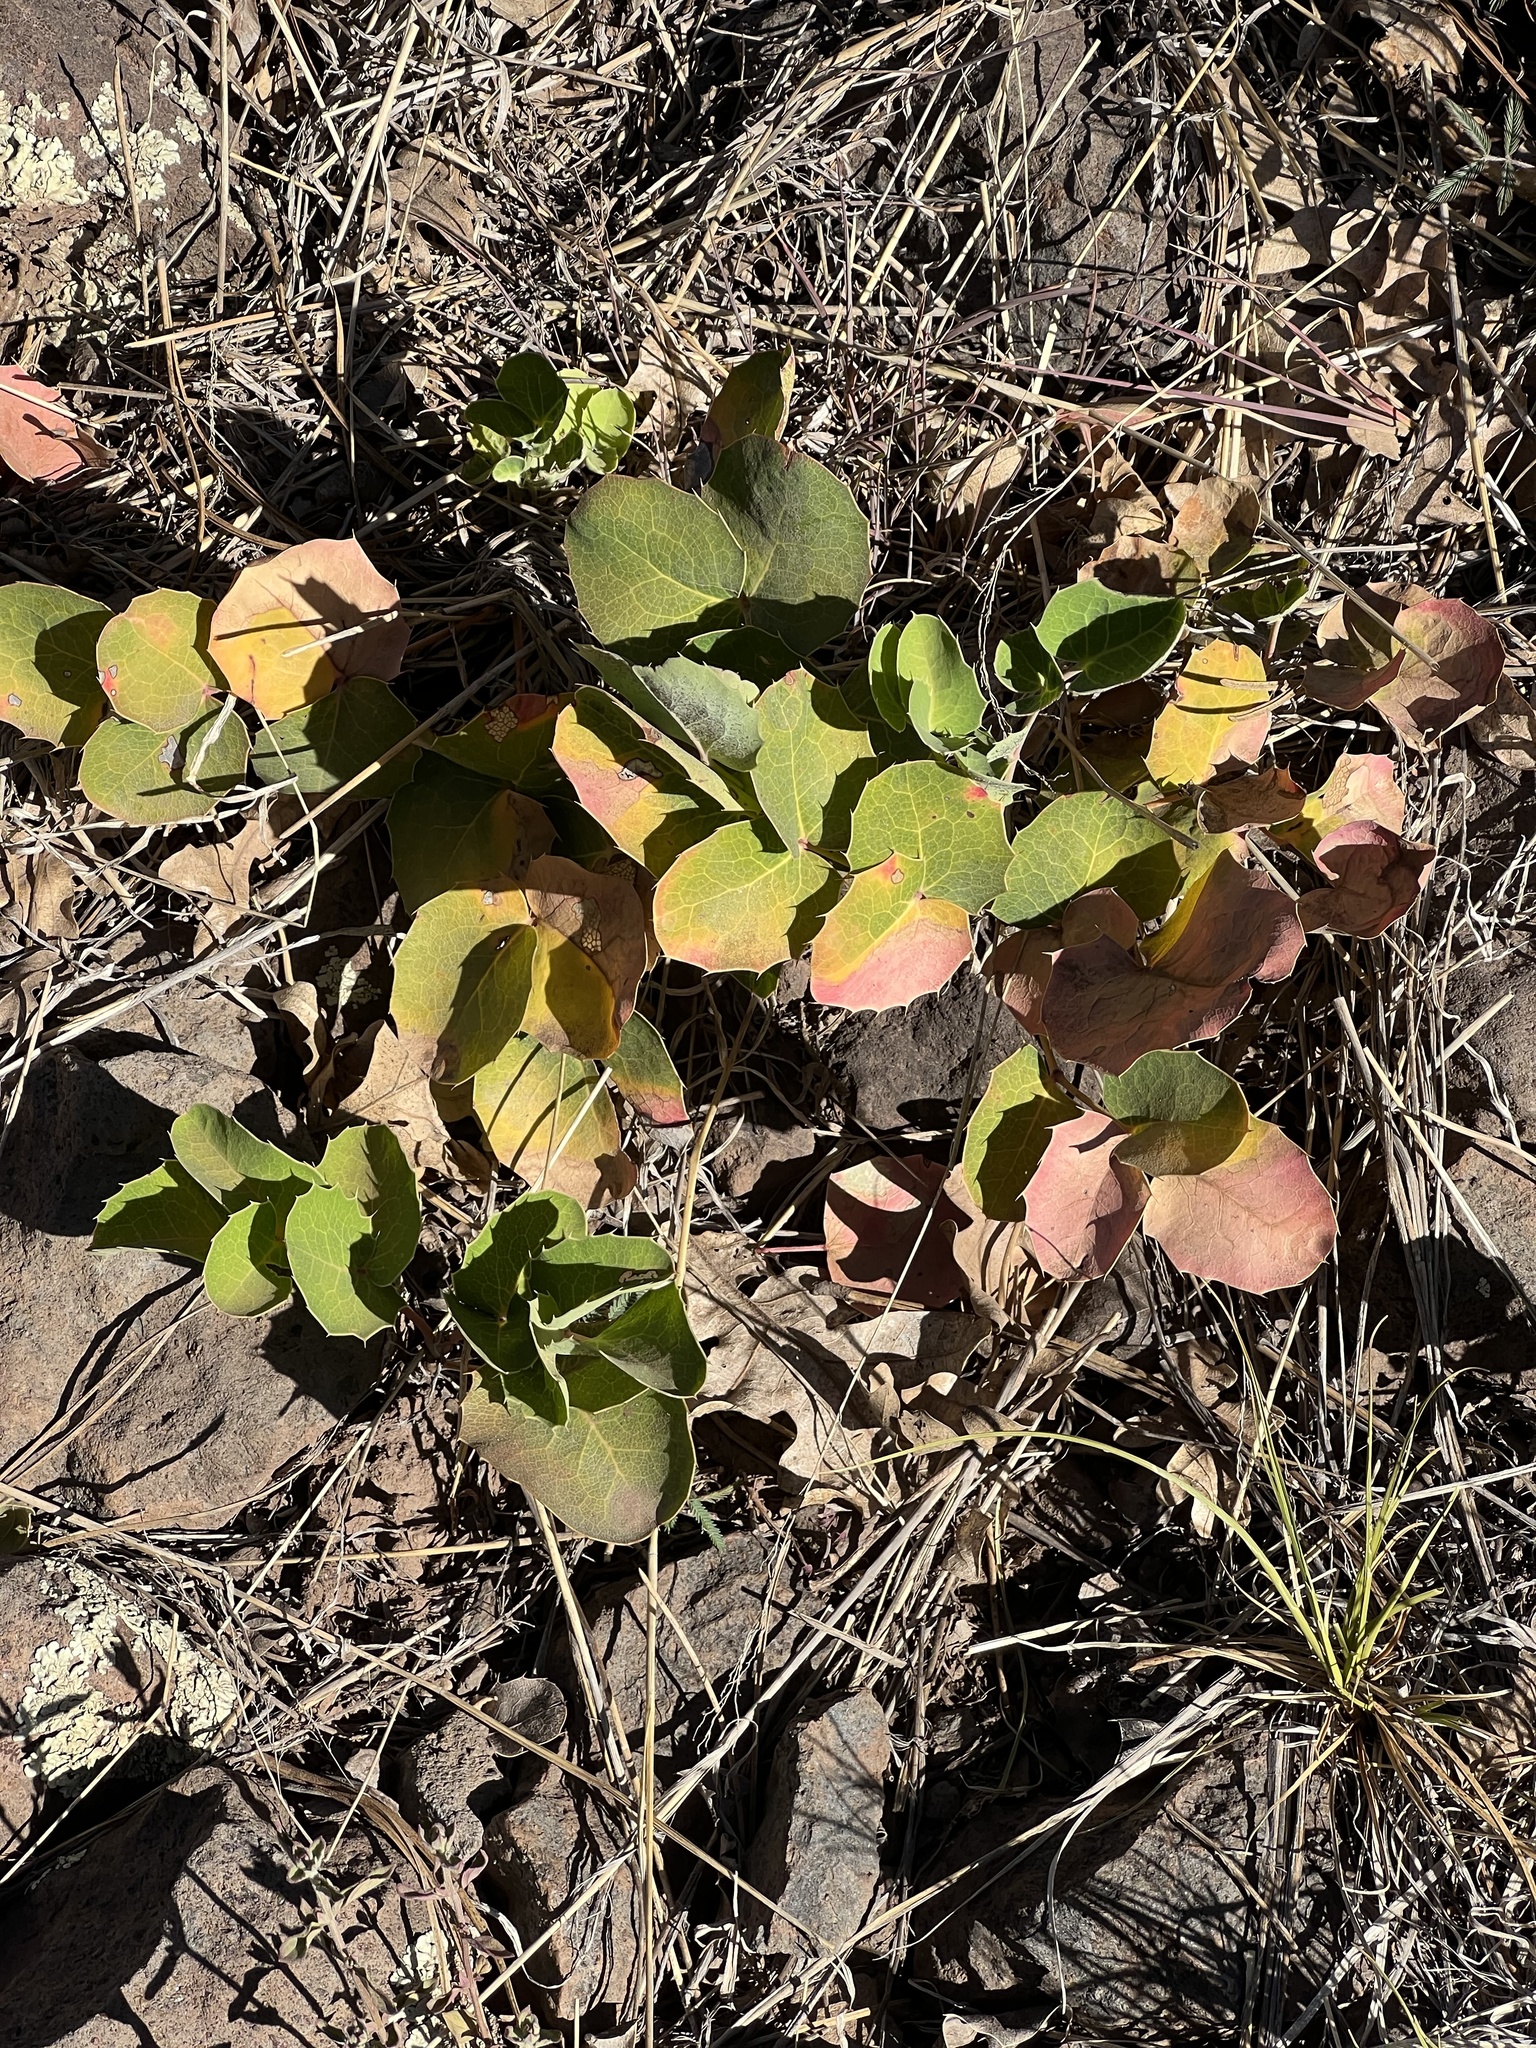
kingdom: Plantae
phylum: Tracheophyta
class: Magnoliopsida
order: Ranunculales
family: Berberidaceae
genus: Mahonia
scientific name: Mahonia repens
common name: Creeping oregon-grape
